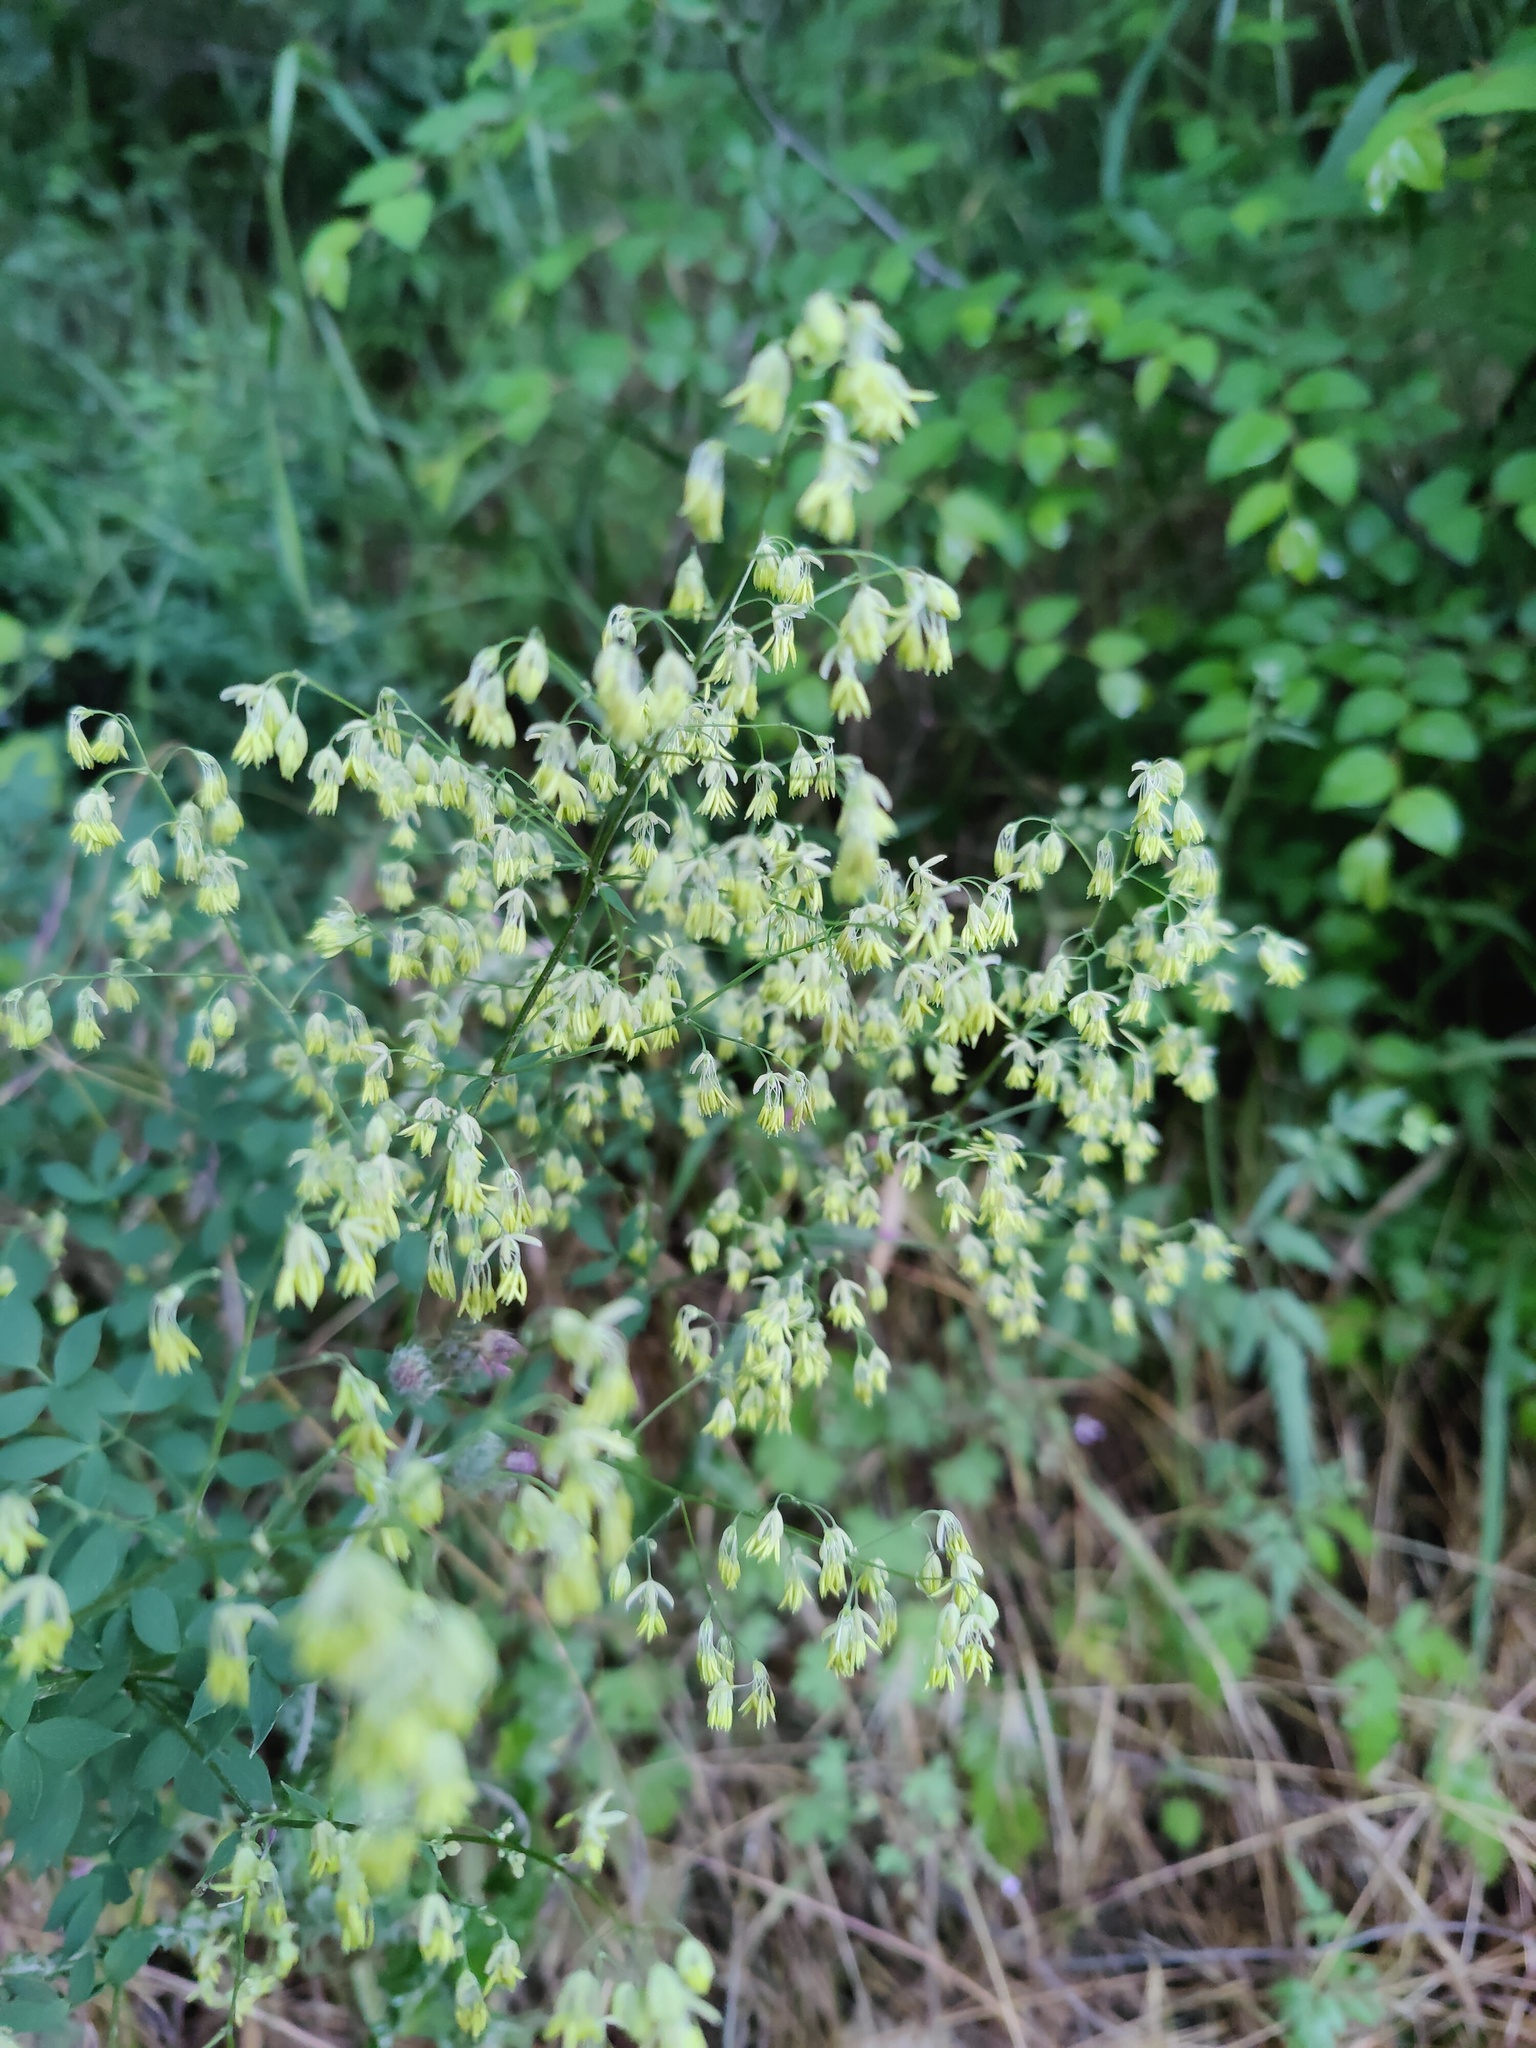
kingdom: Plantae
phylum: Tracheophyta
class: Magnoliopsida
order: Ranunculales
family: Ranunculaceae
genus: Thalictrum
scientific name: Thalictrum minus
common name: Lesser meadow-rue
